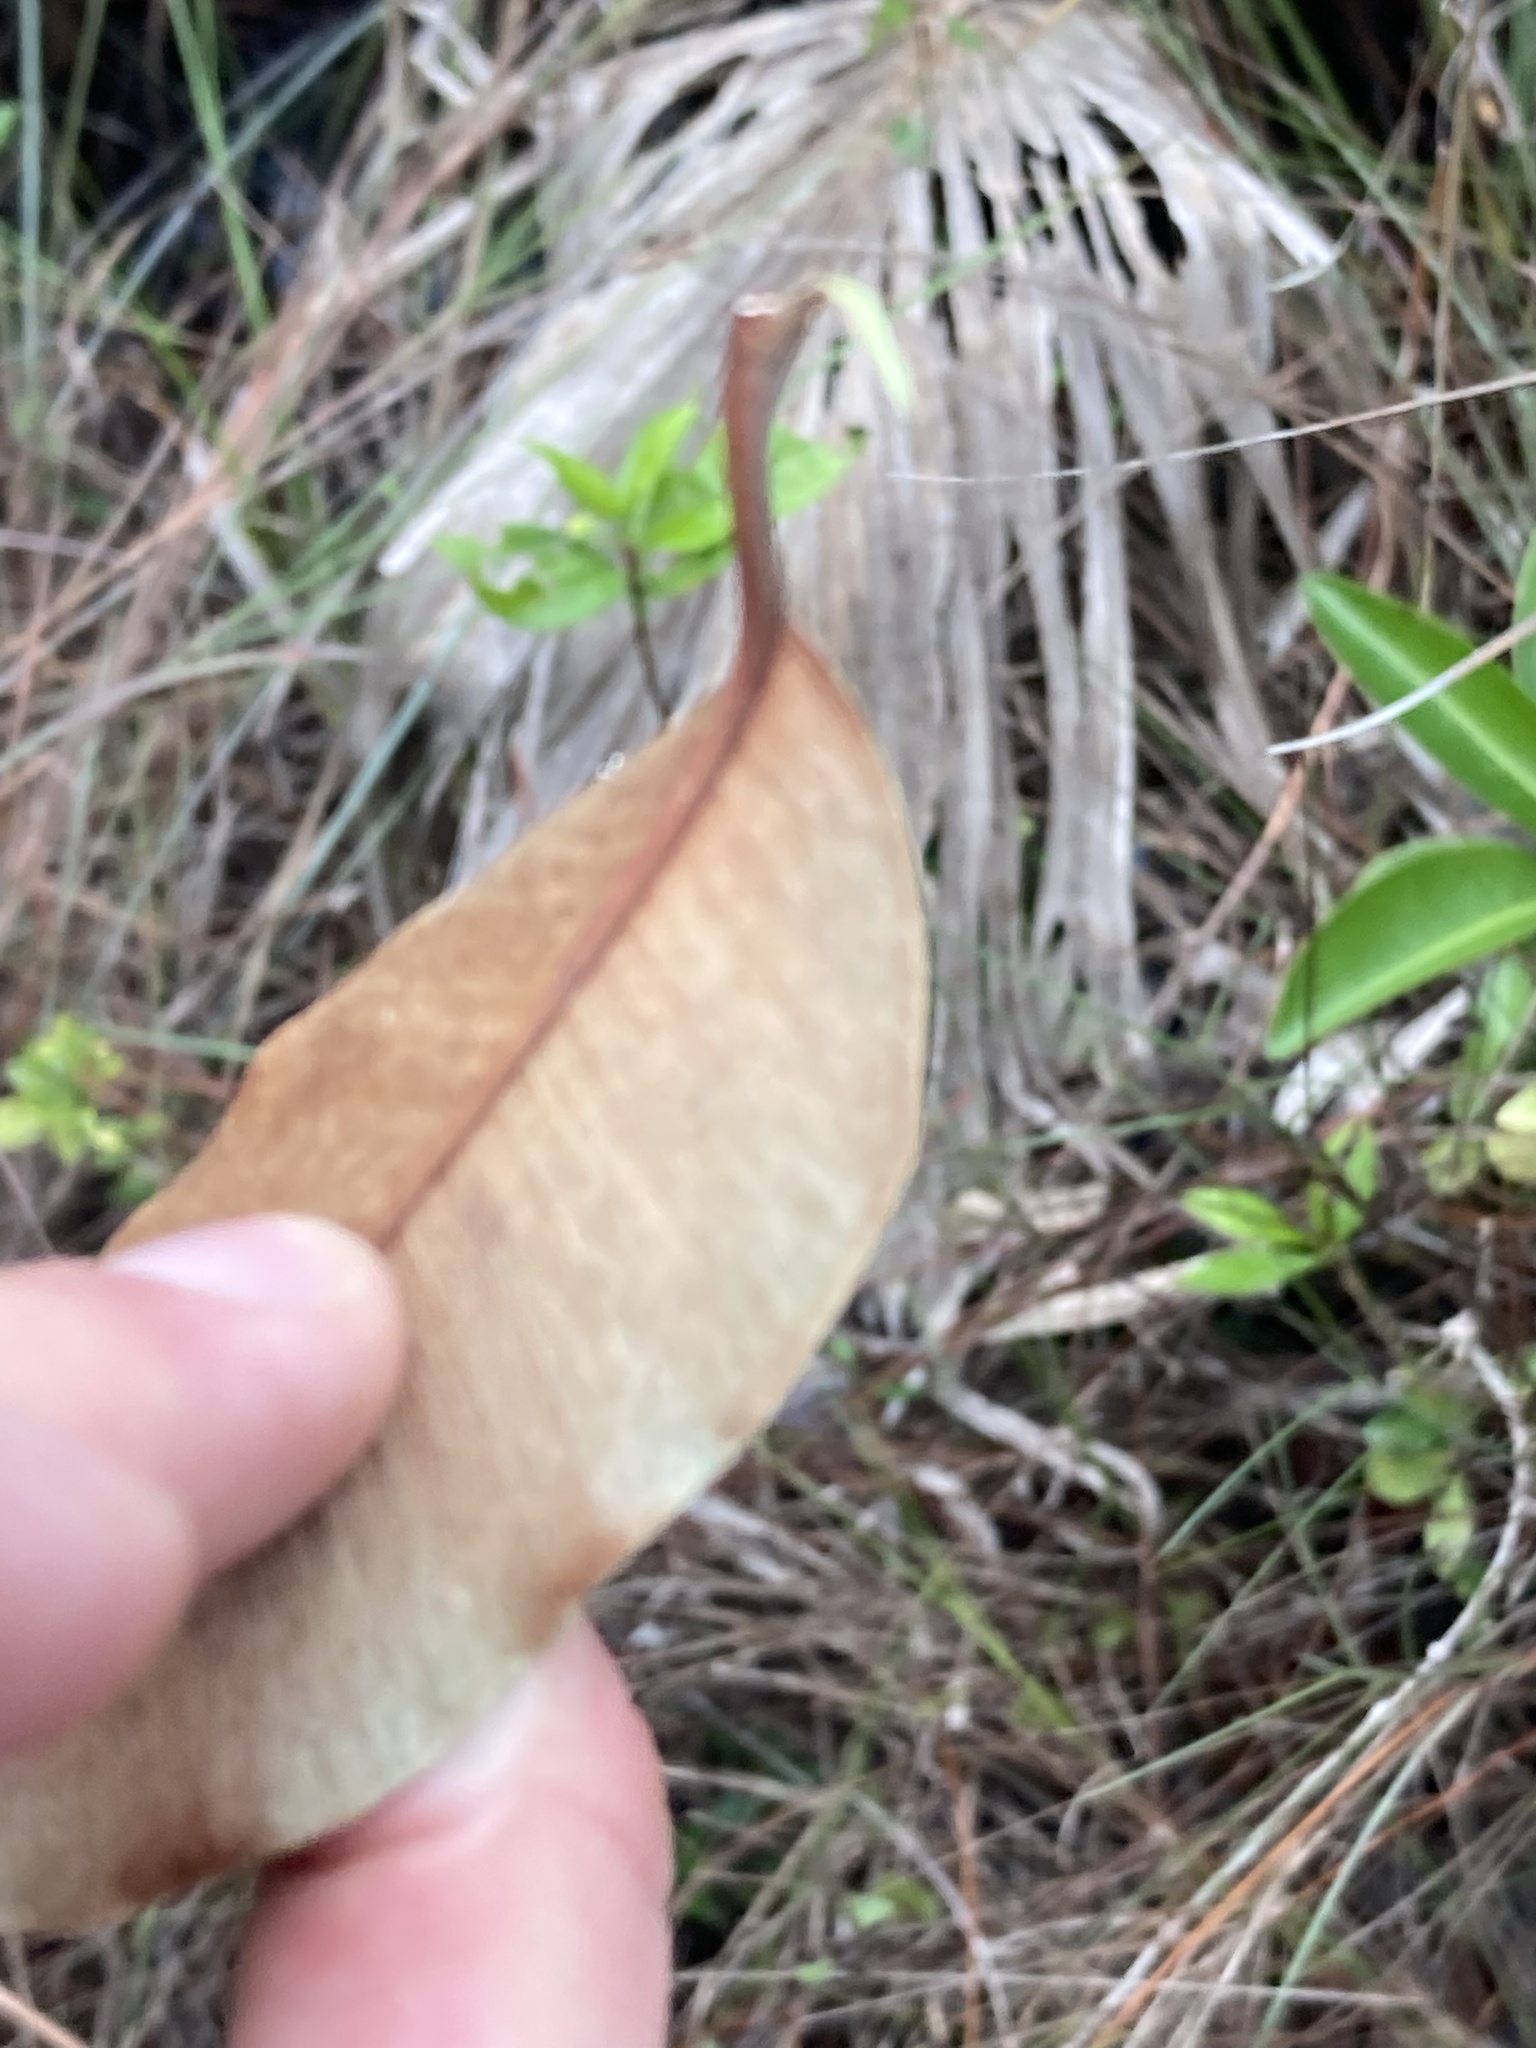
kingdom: Plantae
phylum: Tracheophyta
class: Magnoliopsida
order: Ericales
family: Sapotaceae
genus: Chrysophyllum
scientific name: Chrysophyllum oliviforme
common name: Satinleaf
